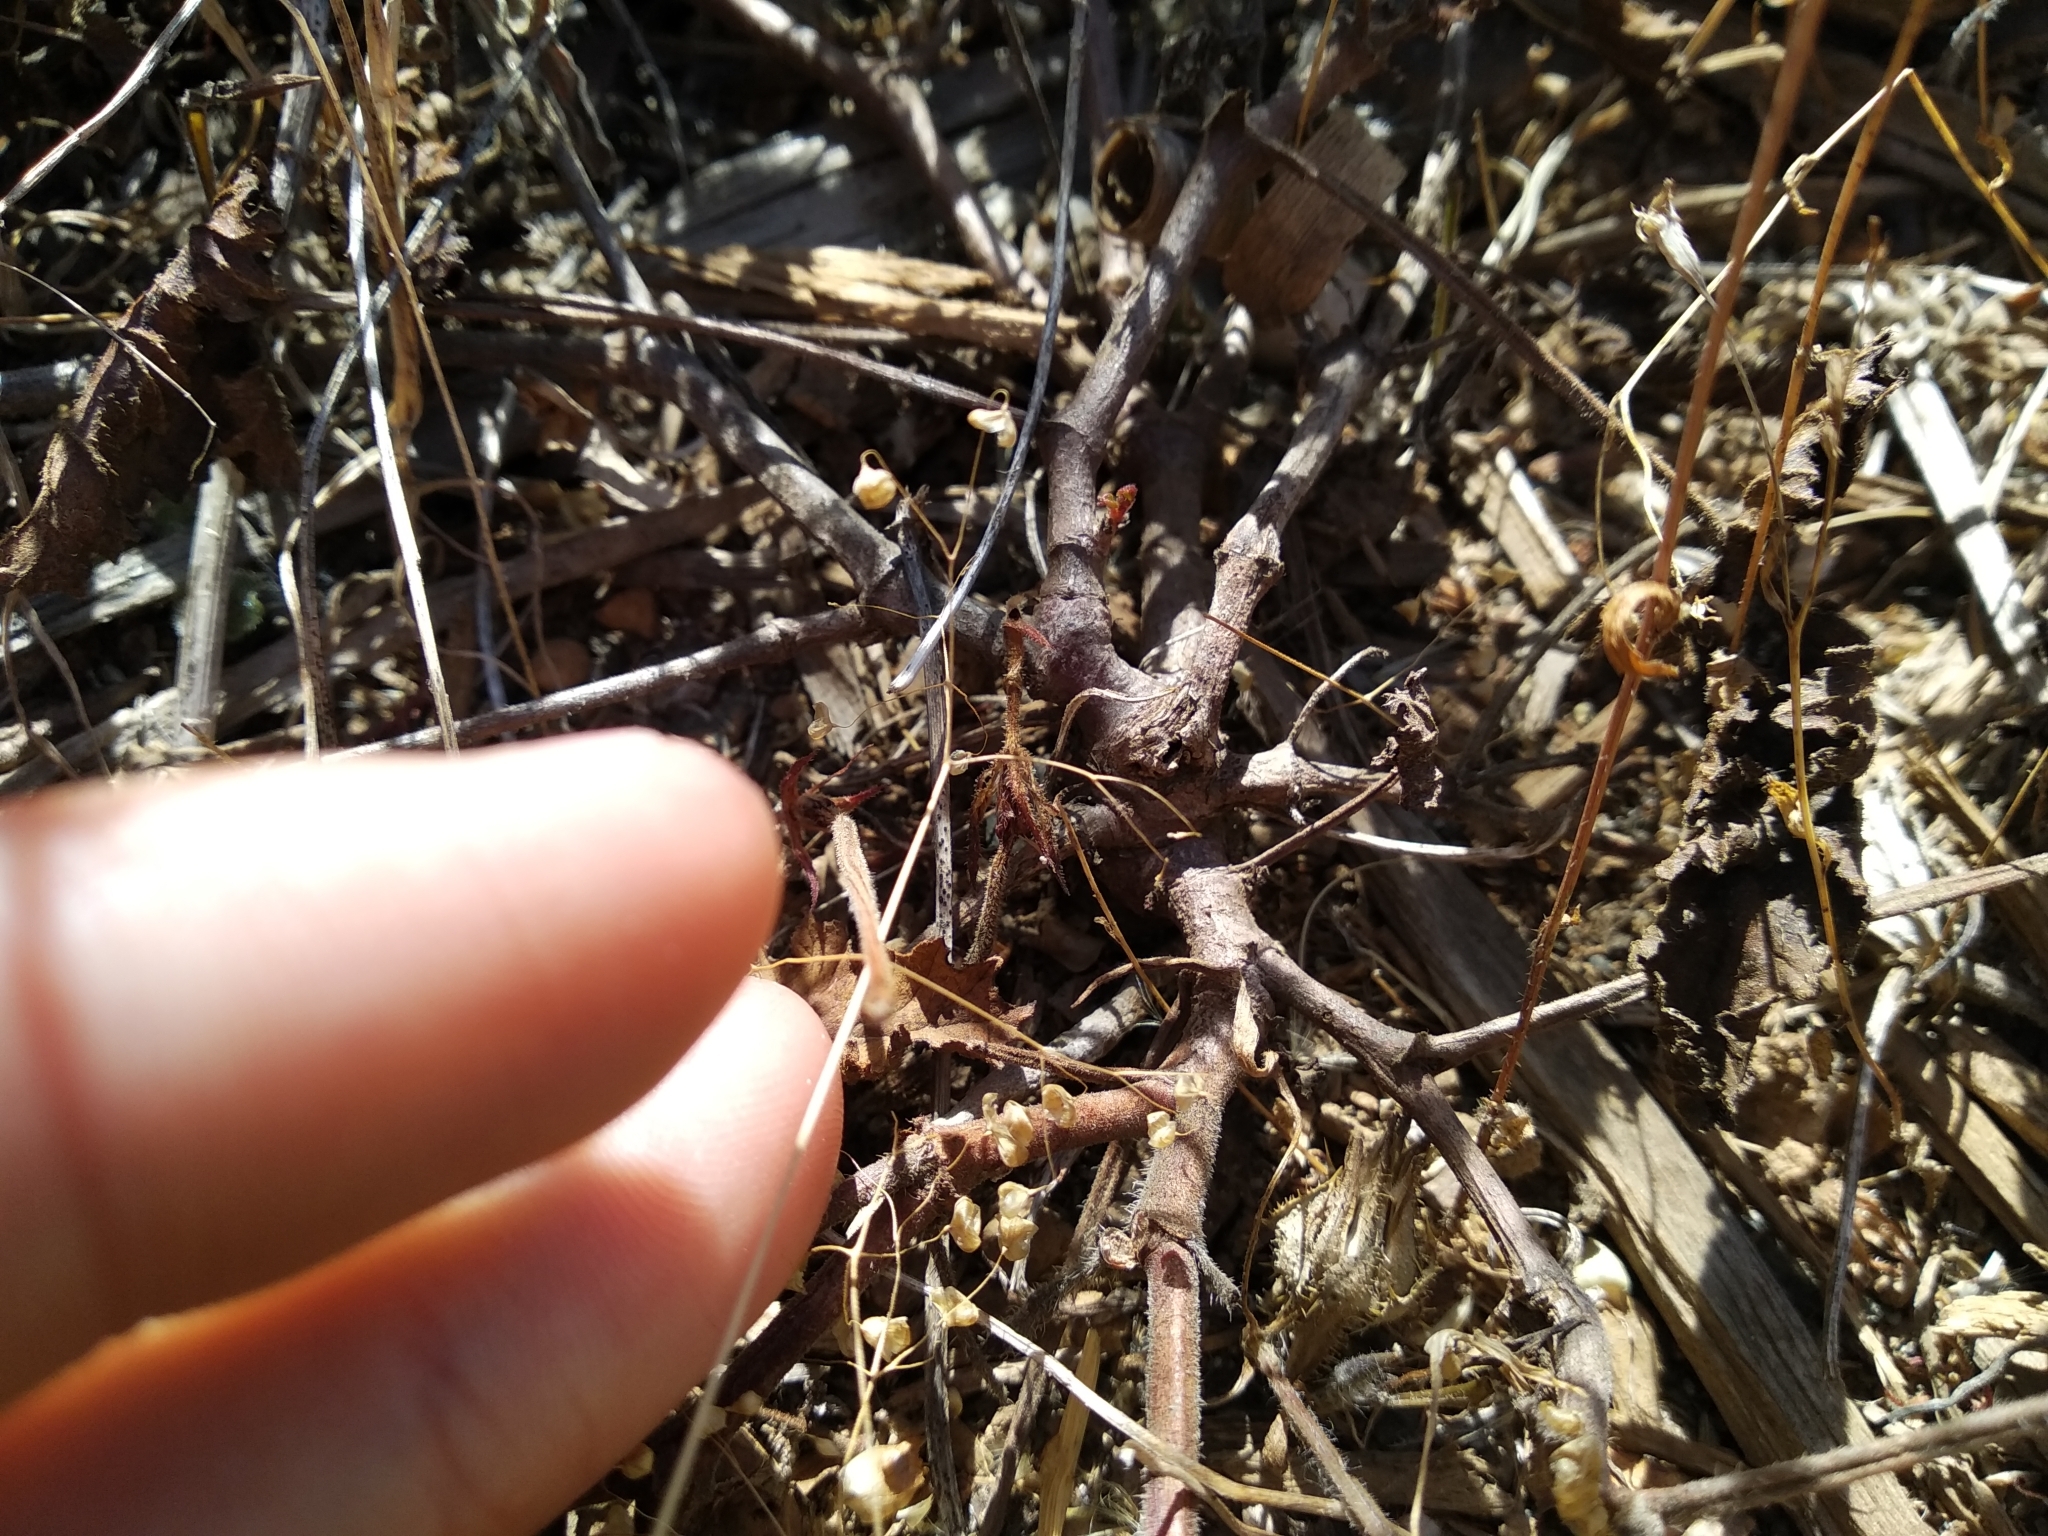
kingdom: Plantae
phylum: Tracheophyta
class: Magnoliopsida
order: Geraniales
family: Geraniaceae
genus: Pelargonium
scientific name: Pelargonium myrrhifolium
